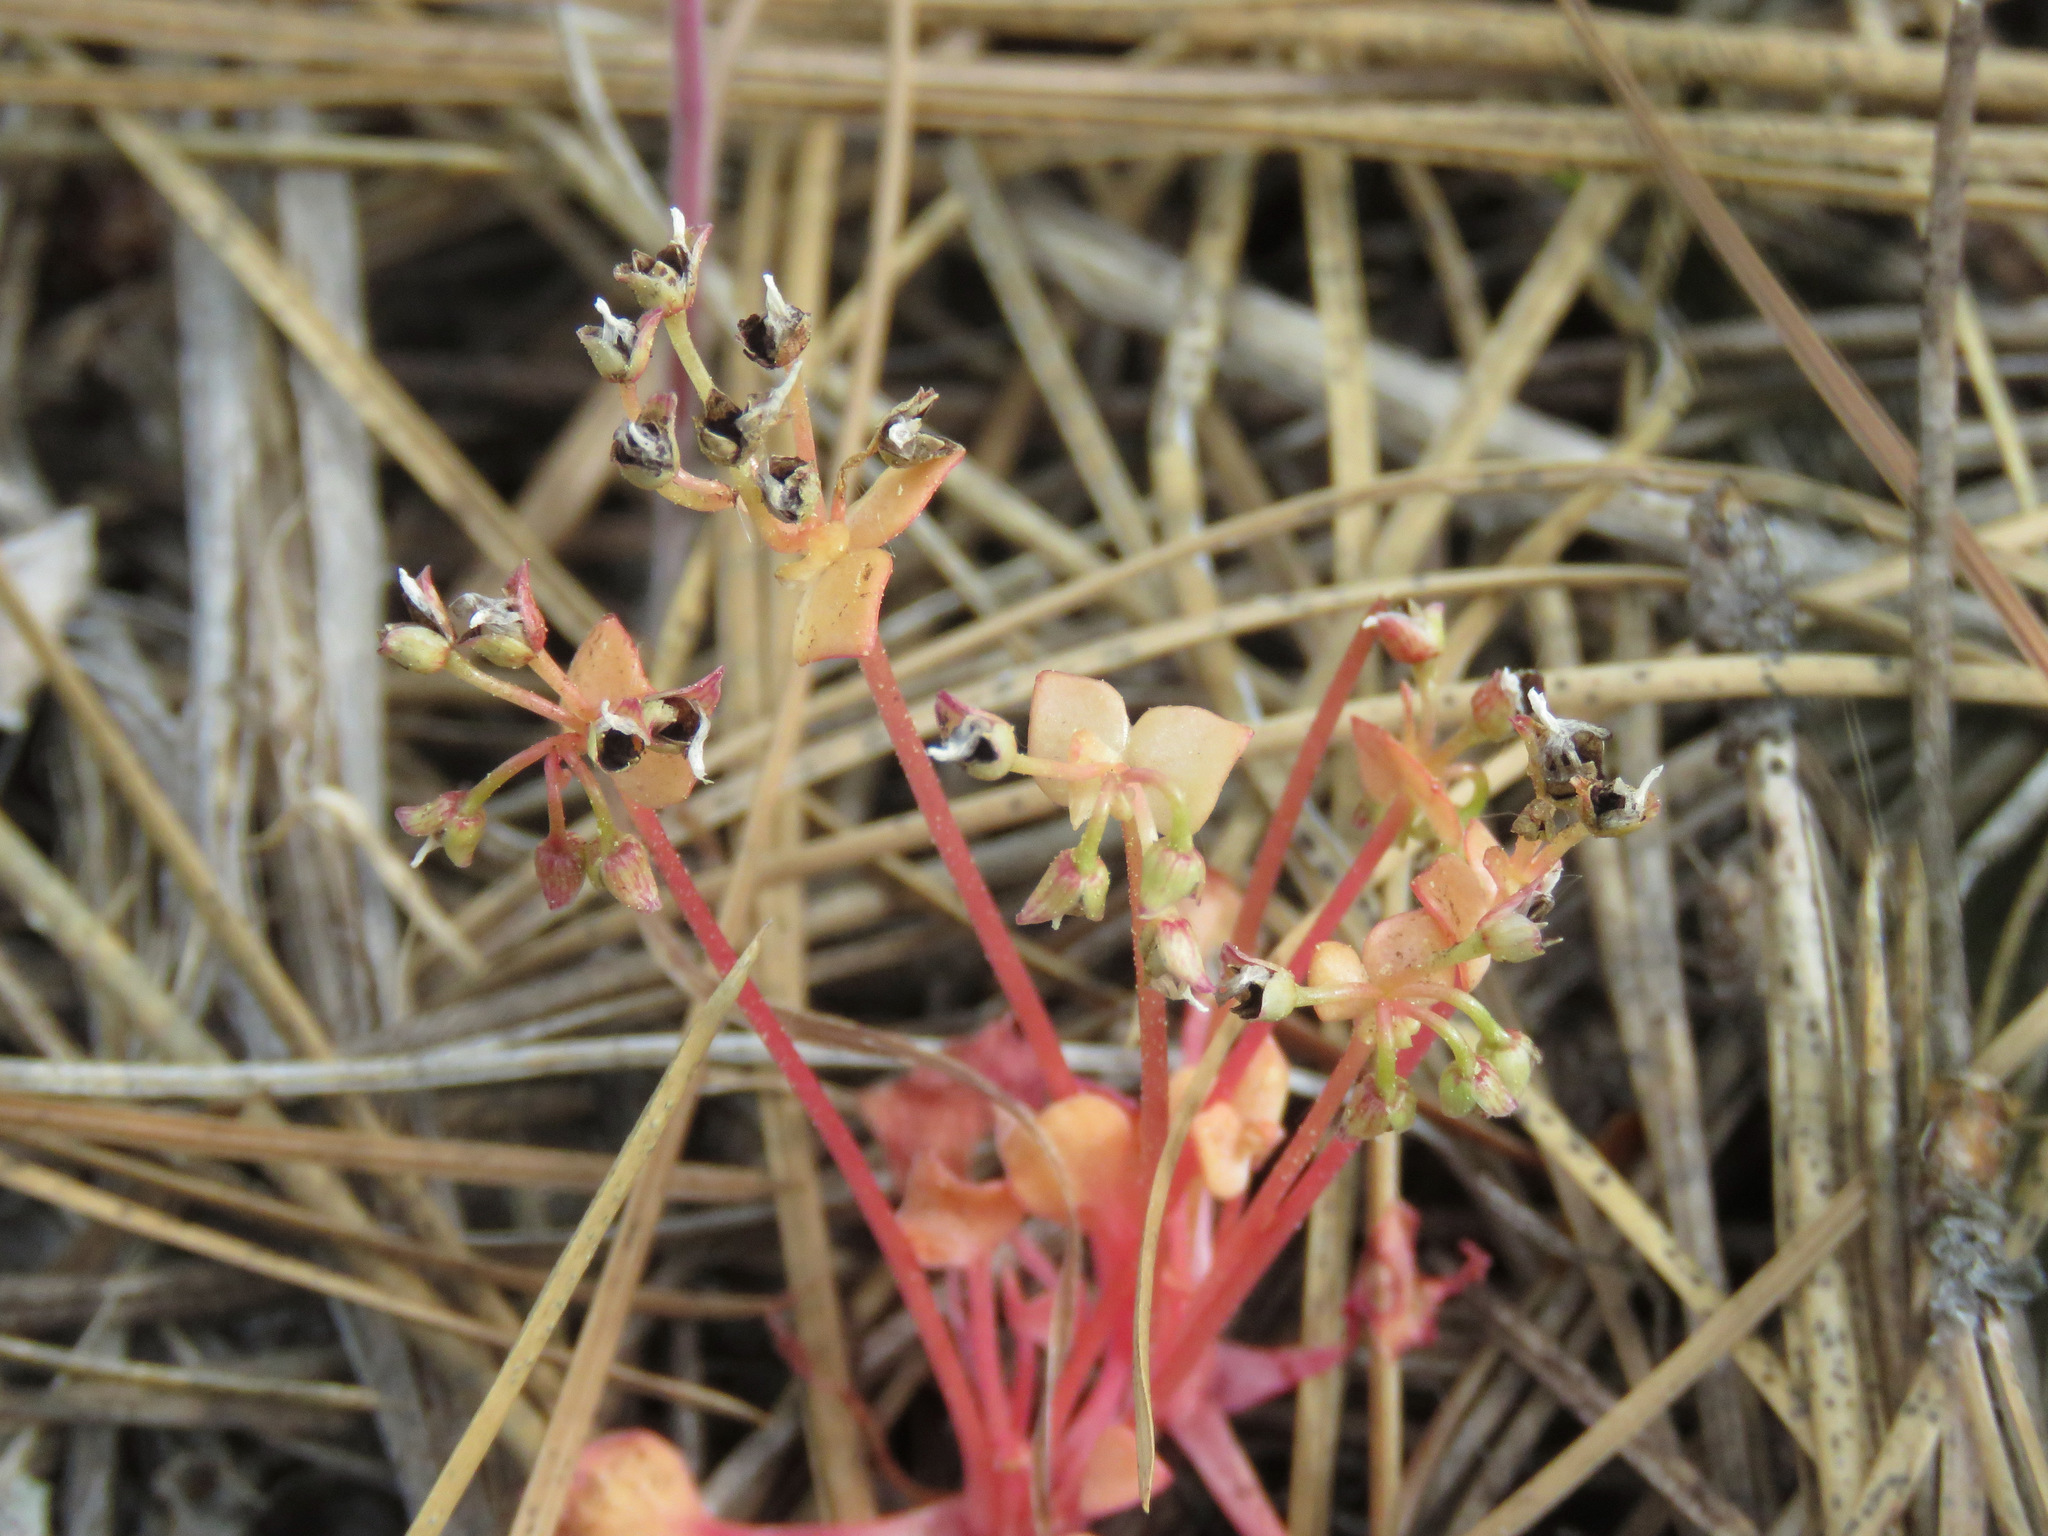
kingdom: Plantae
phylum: Tracheophyta
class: Magnoliopsida
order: Caryophyllales
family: Montiaceae
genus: Claytonia
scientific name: Claytonia rubra
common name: Erubescent miner's-lettuce
